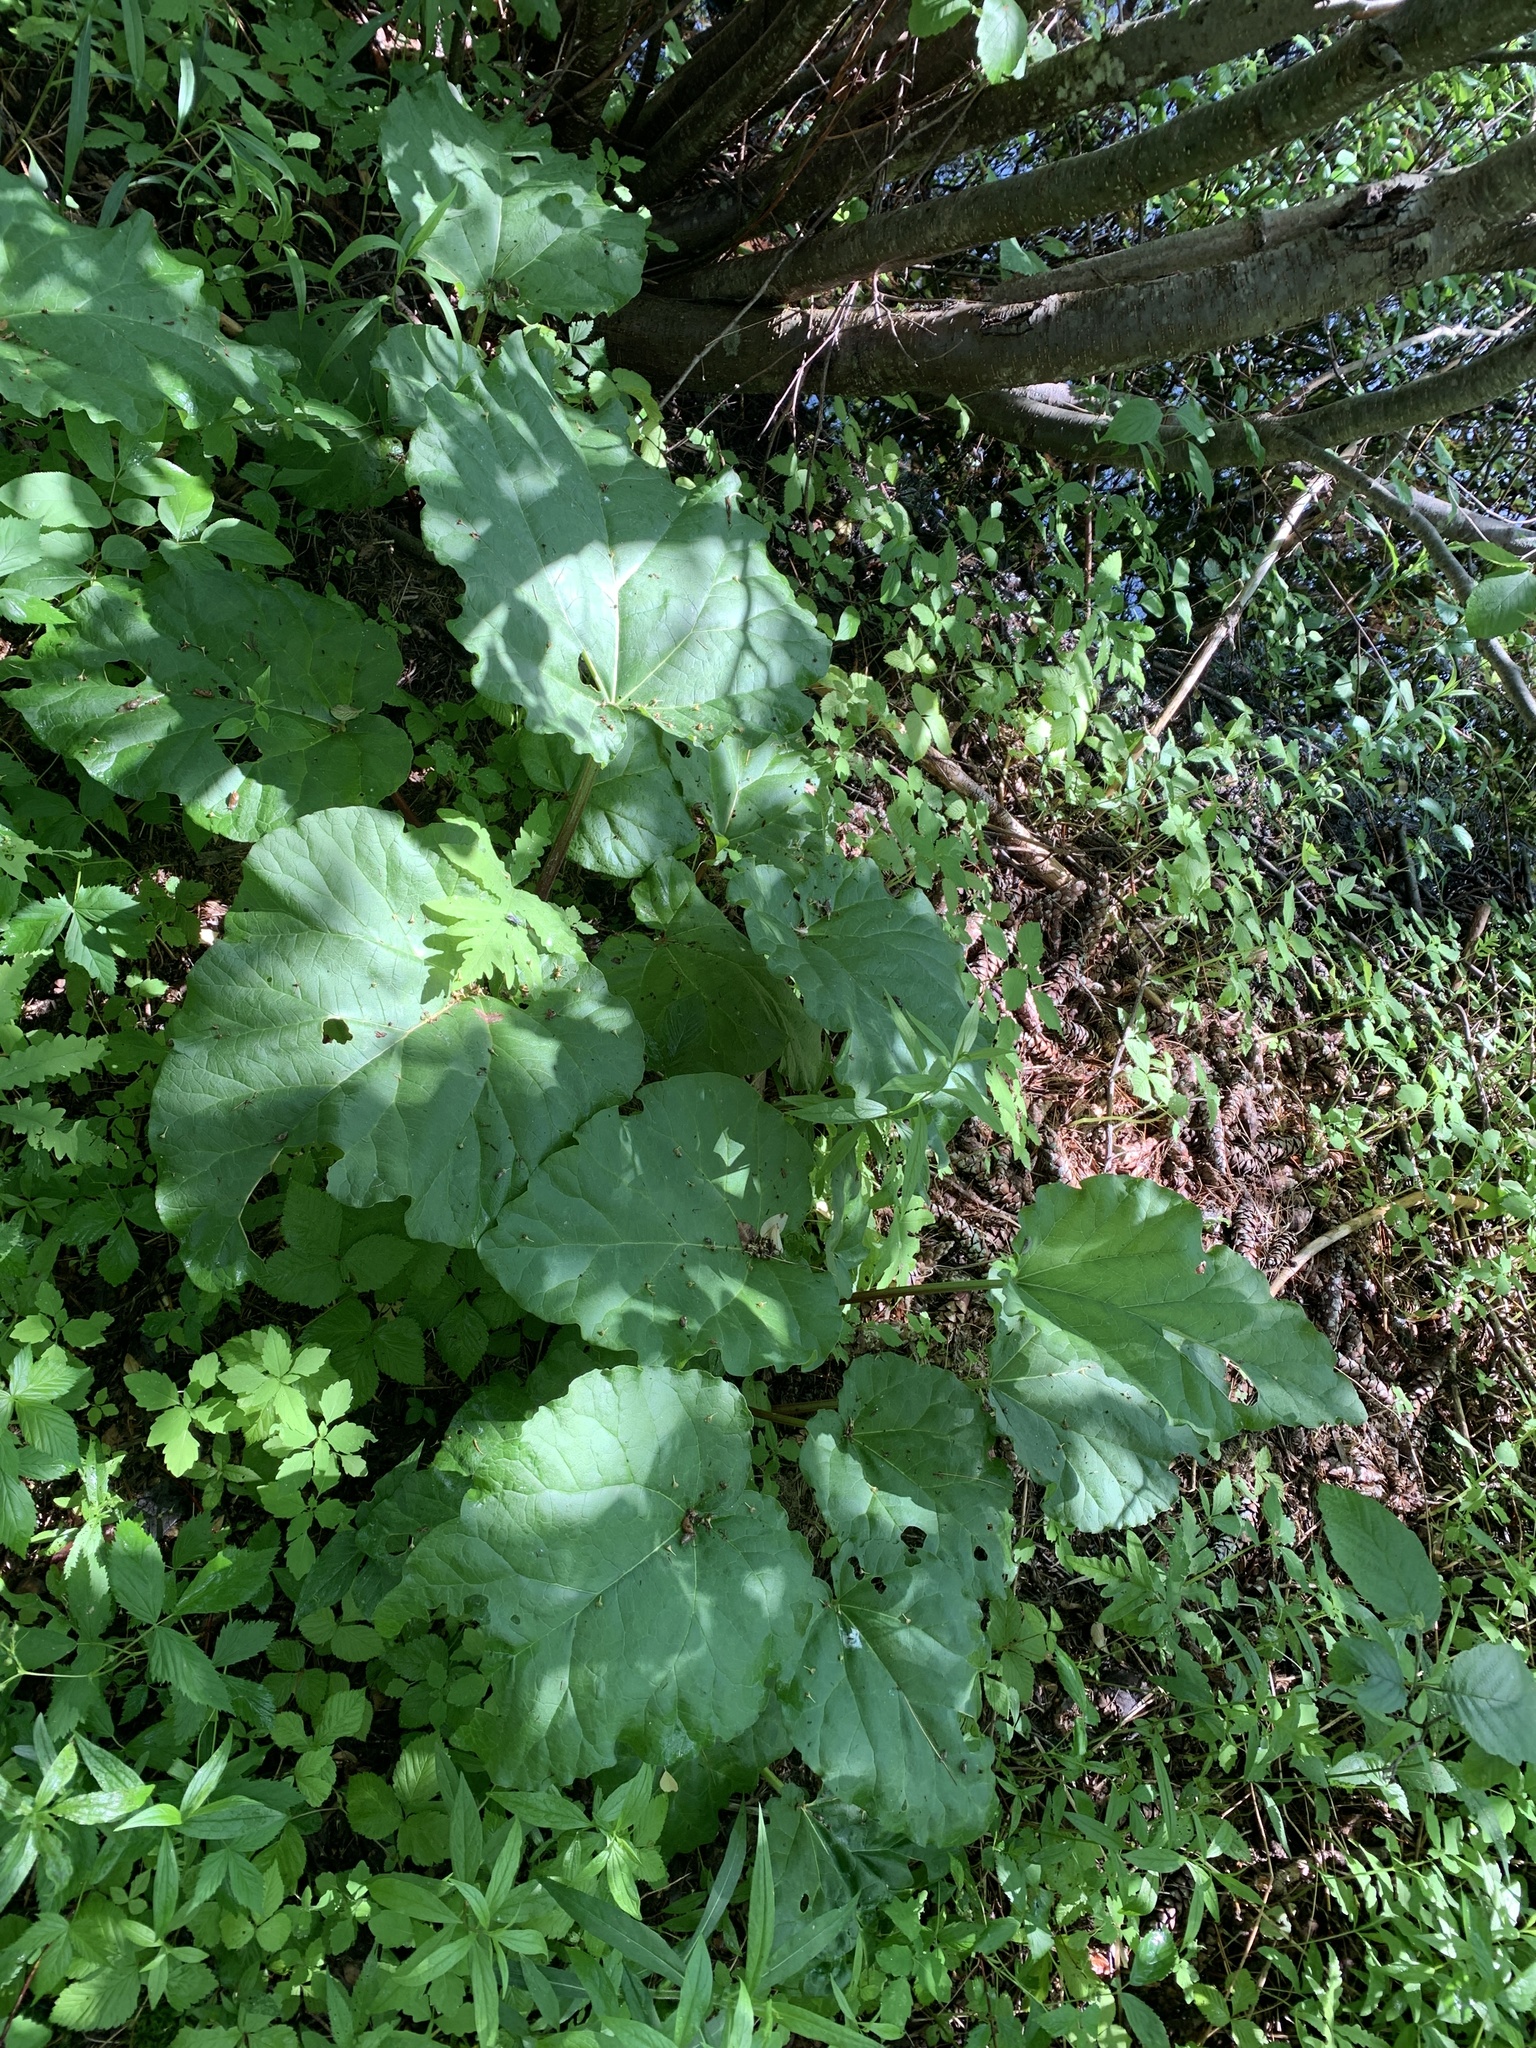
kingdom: Plantae
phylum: Tracheophyta
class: Magnoliopsida
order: Caryophyllales
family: Polygonaceae
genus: Rheum
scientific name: Rheum rhabarbarum
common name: Garden rhubarb
